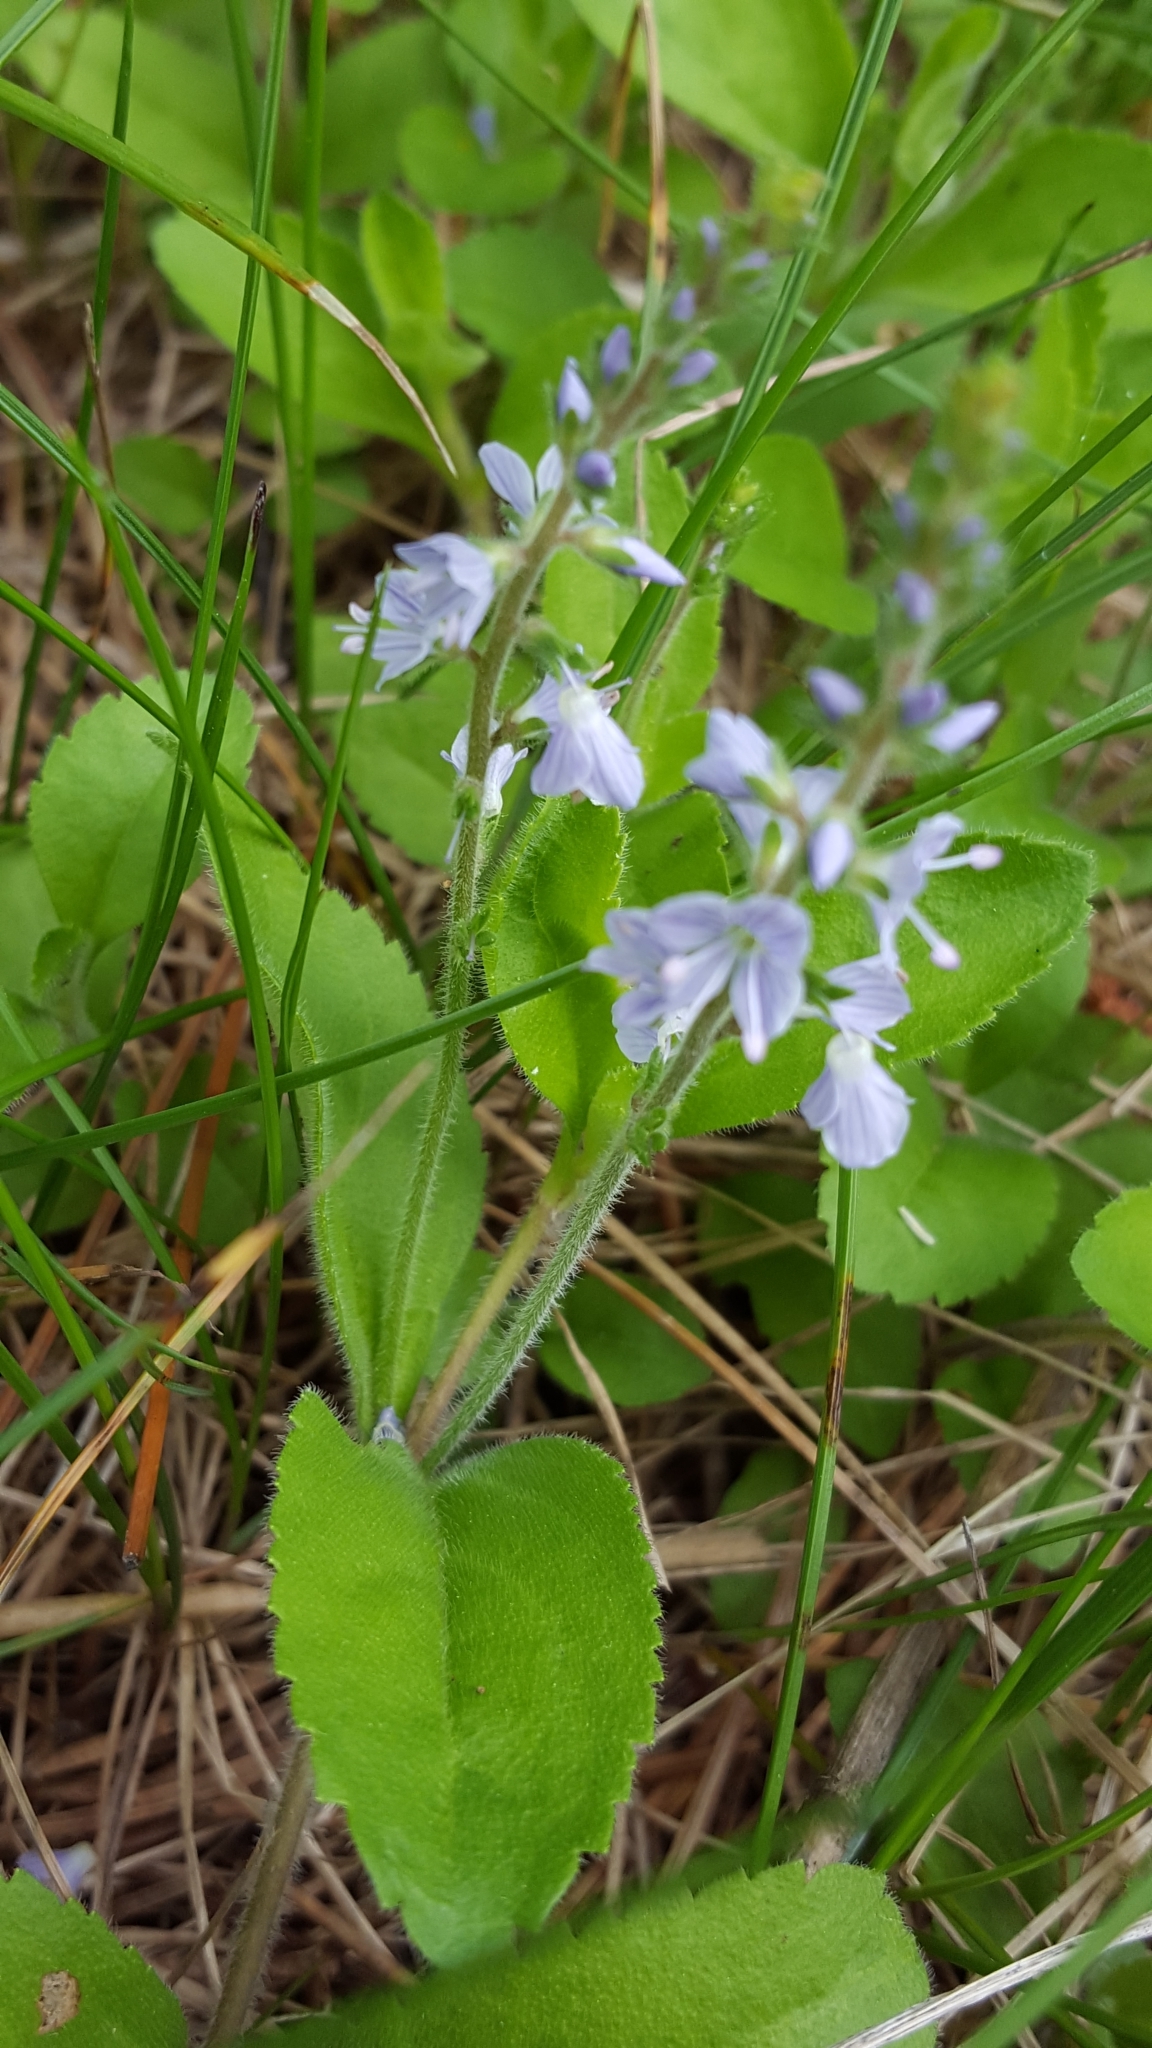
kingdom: Plantae
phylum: Tracheophyta
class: Magnoliopsida
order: Lamiales
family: Plantaginaceae
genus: Veronica
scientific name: Veronica officinalis
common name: Common speedwell
